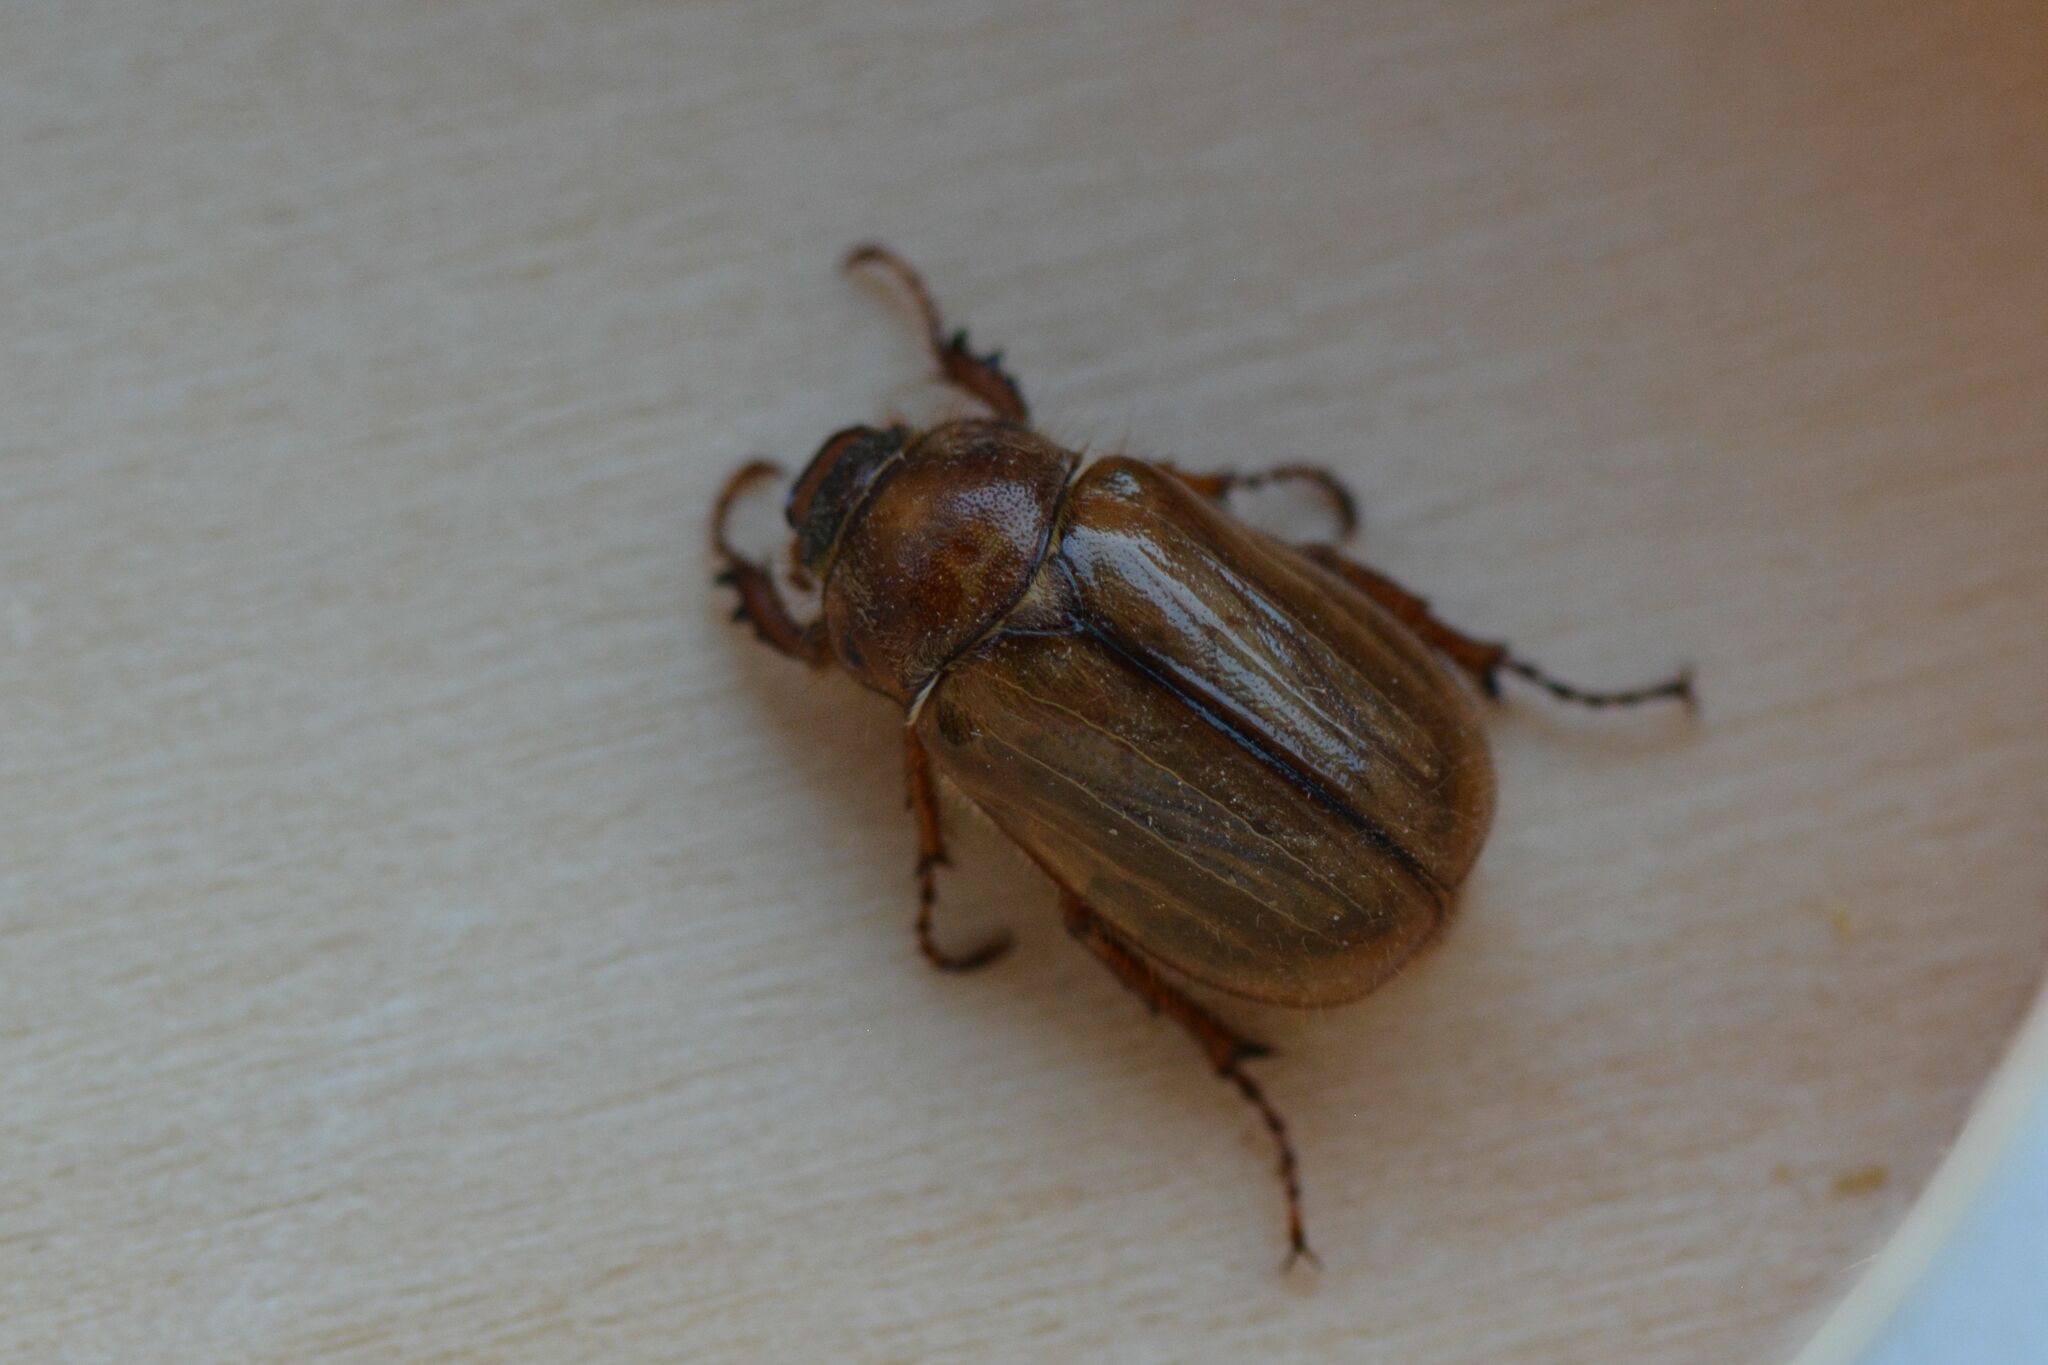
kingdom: Animalia
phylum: Arthropoda
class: Insecta
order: Coleoptera
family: Scarabaeidae
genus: Amphimallon
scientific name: Amphimallon solstitiale
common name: Summer chafer
